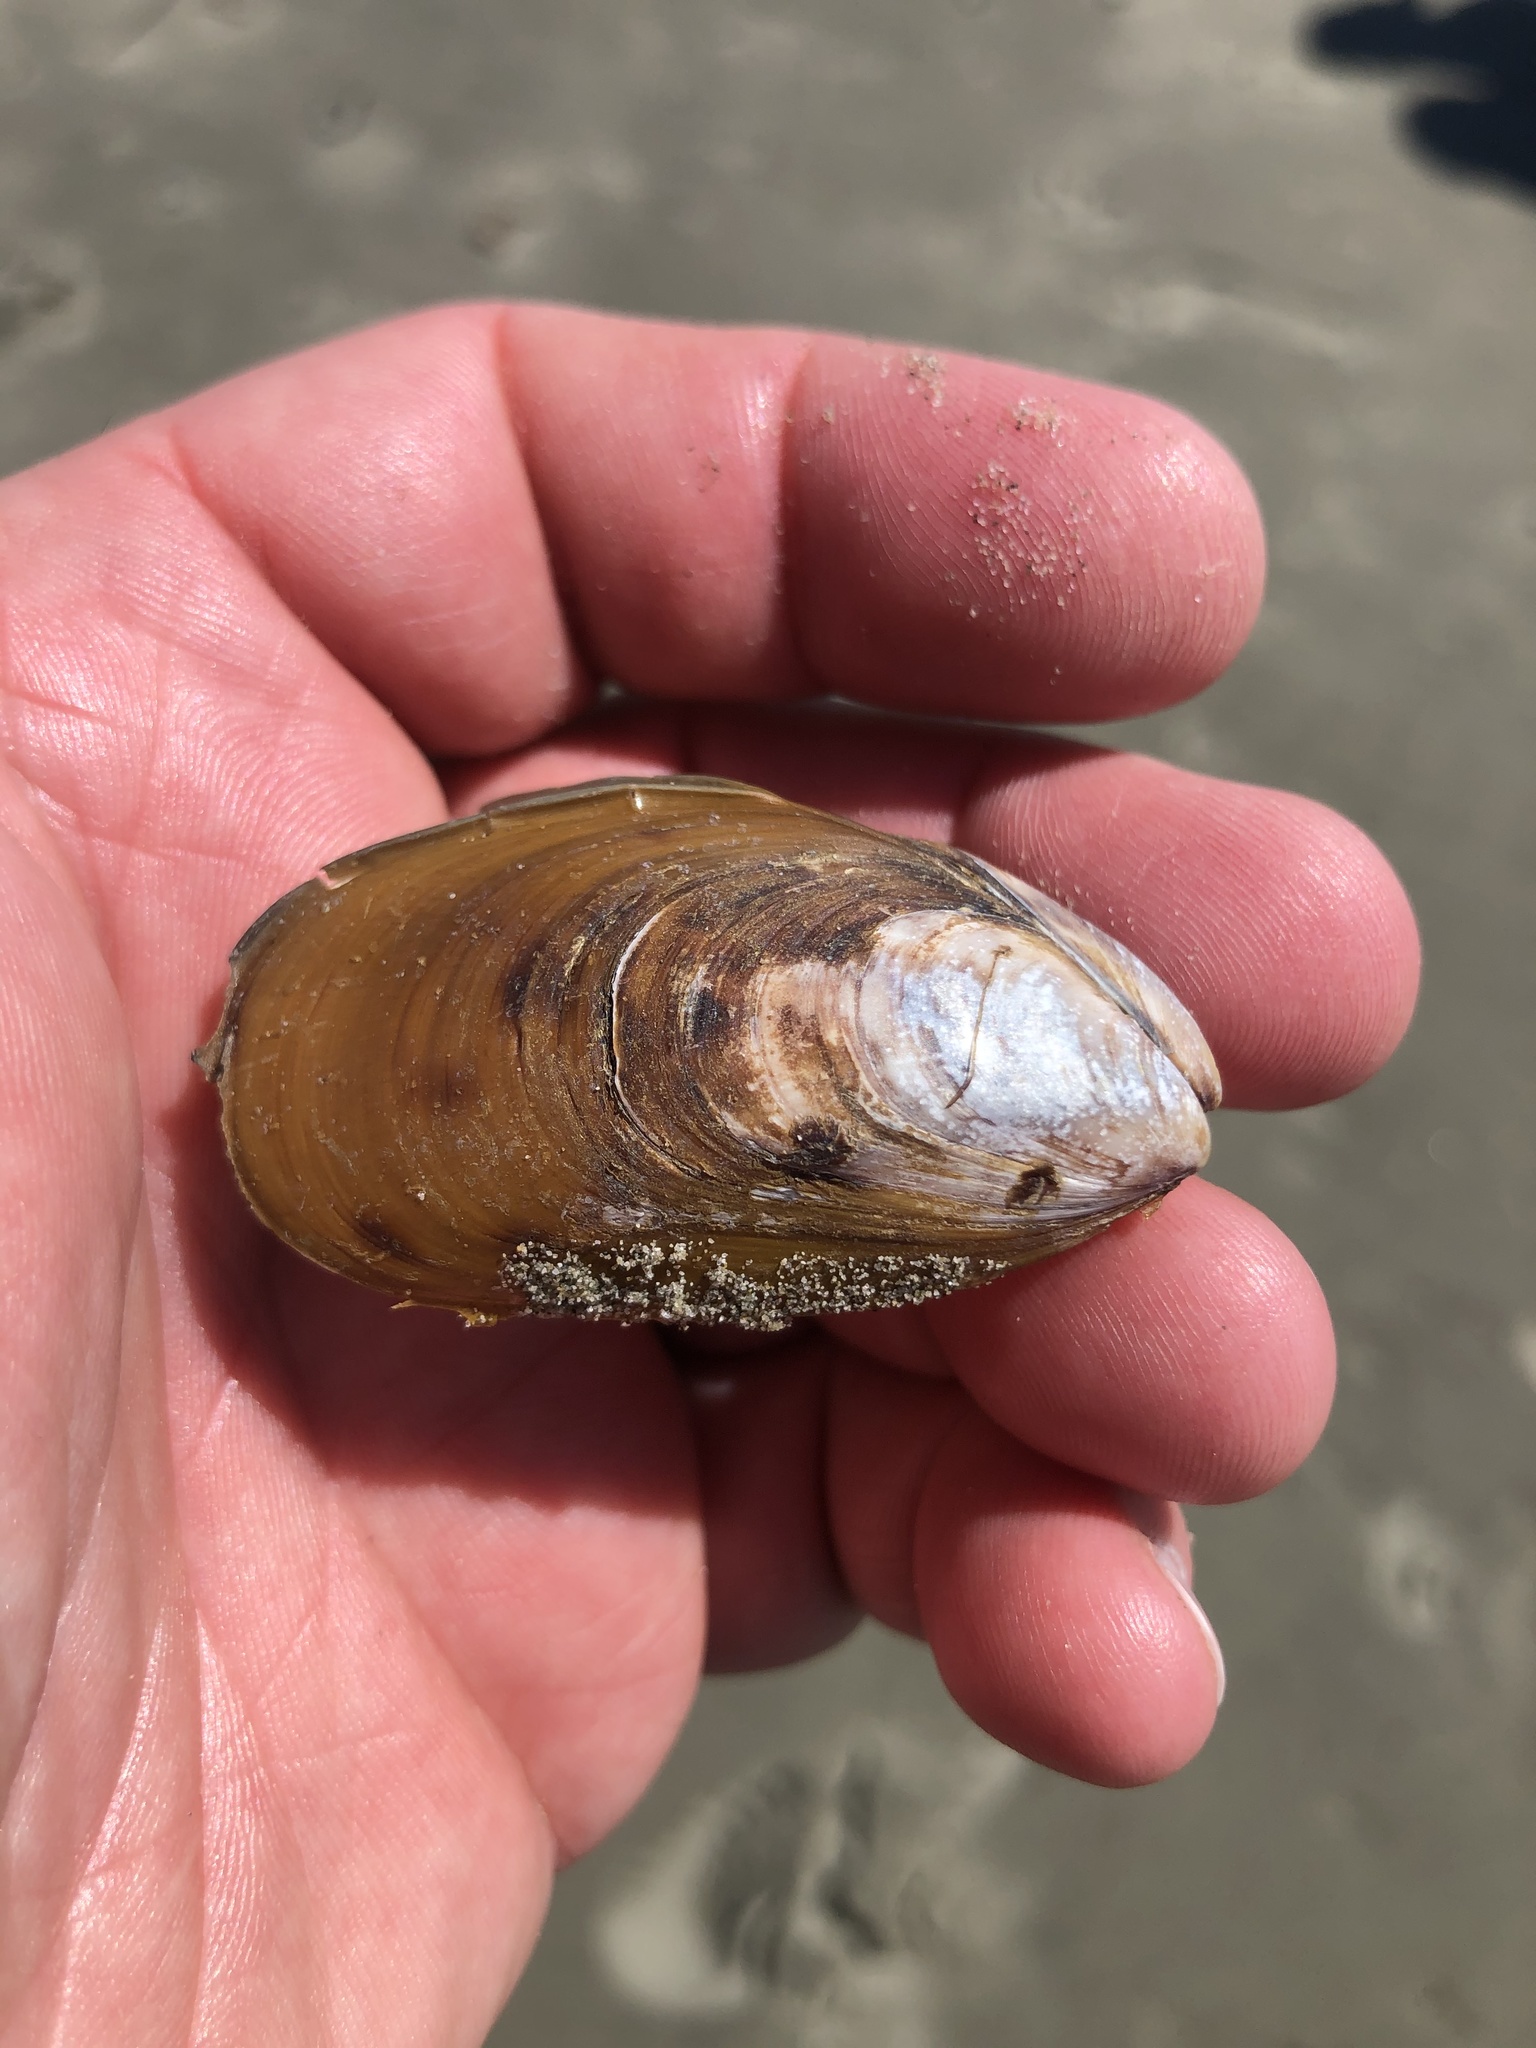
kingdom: Animalia
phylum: Mollusca
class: Bivalvia
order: Mytilida
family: Mytilidae
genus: Perna
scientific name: Perna canaliculus
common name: New zealand greenshelltm
